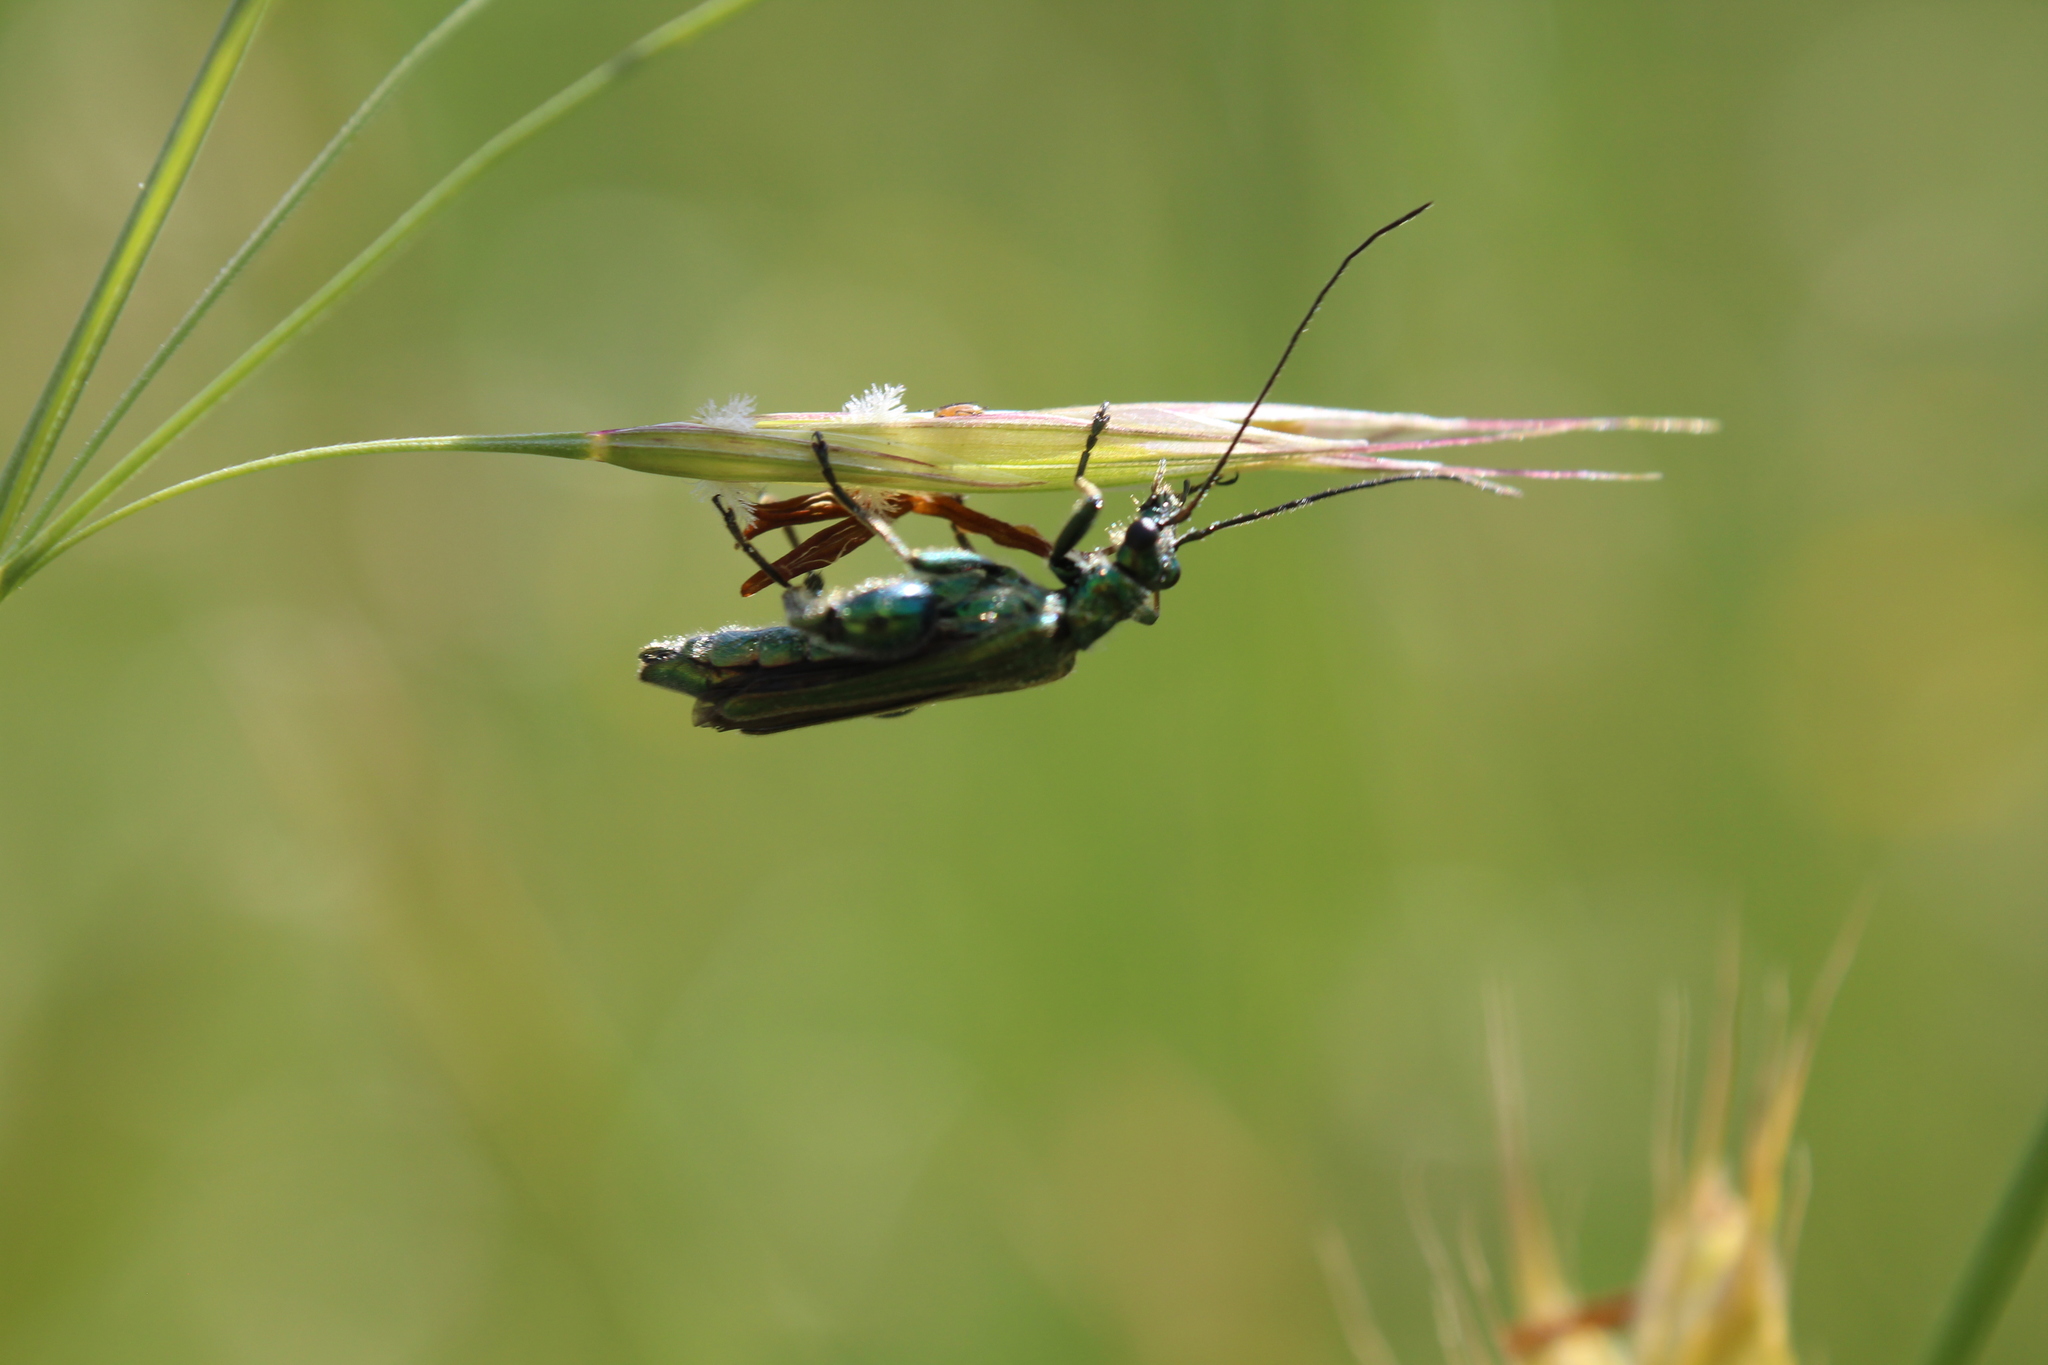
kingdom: Animalia
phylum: Arthropoda
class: Insecta
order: Coleoptera
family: Oedemeridae
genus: Oedemera
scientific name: Oedemera nobilis
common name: Swollen-thighed beetle
